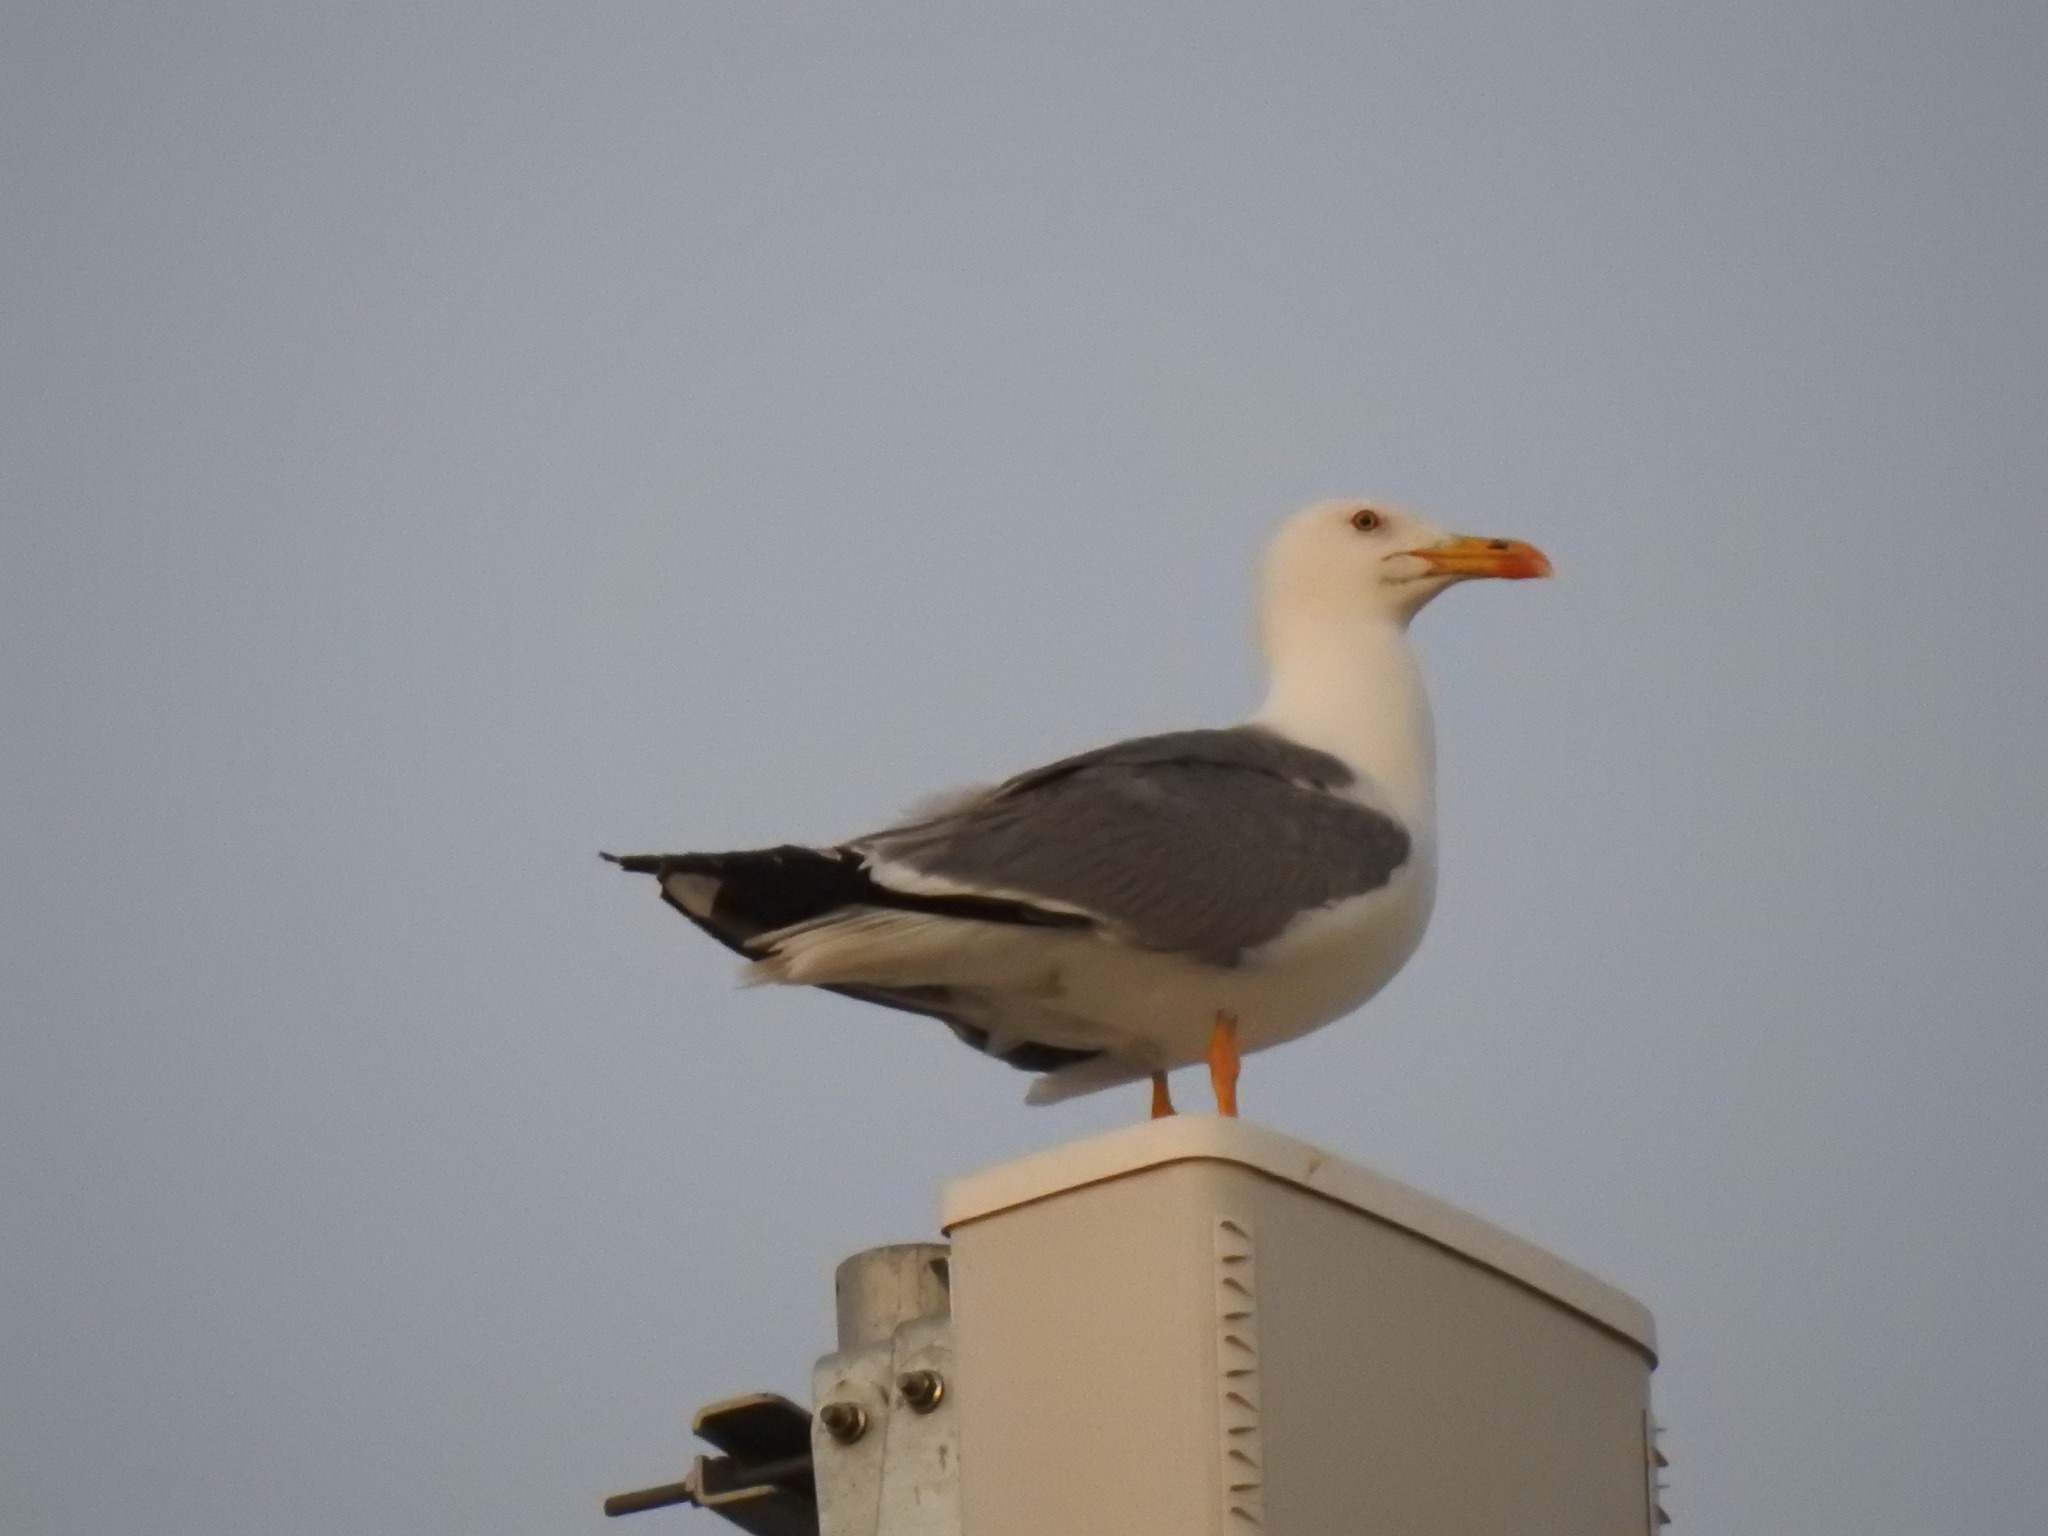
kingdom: Animalia
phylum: Chordata
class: Aves
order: Charadriiformes
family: Laridae
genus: Larus
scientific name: Larus michahellis
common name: Yellow-legged gull
